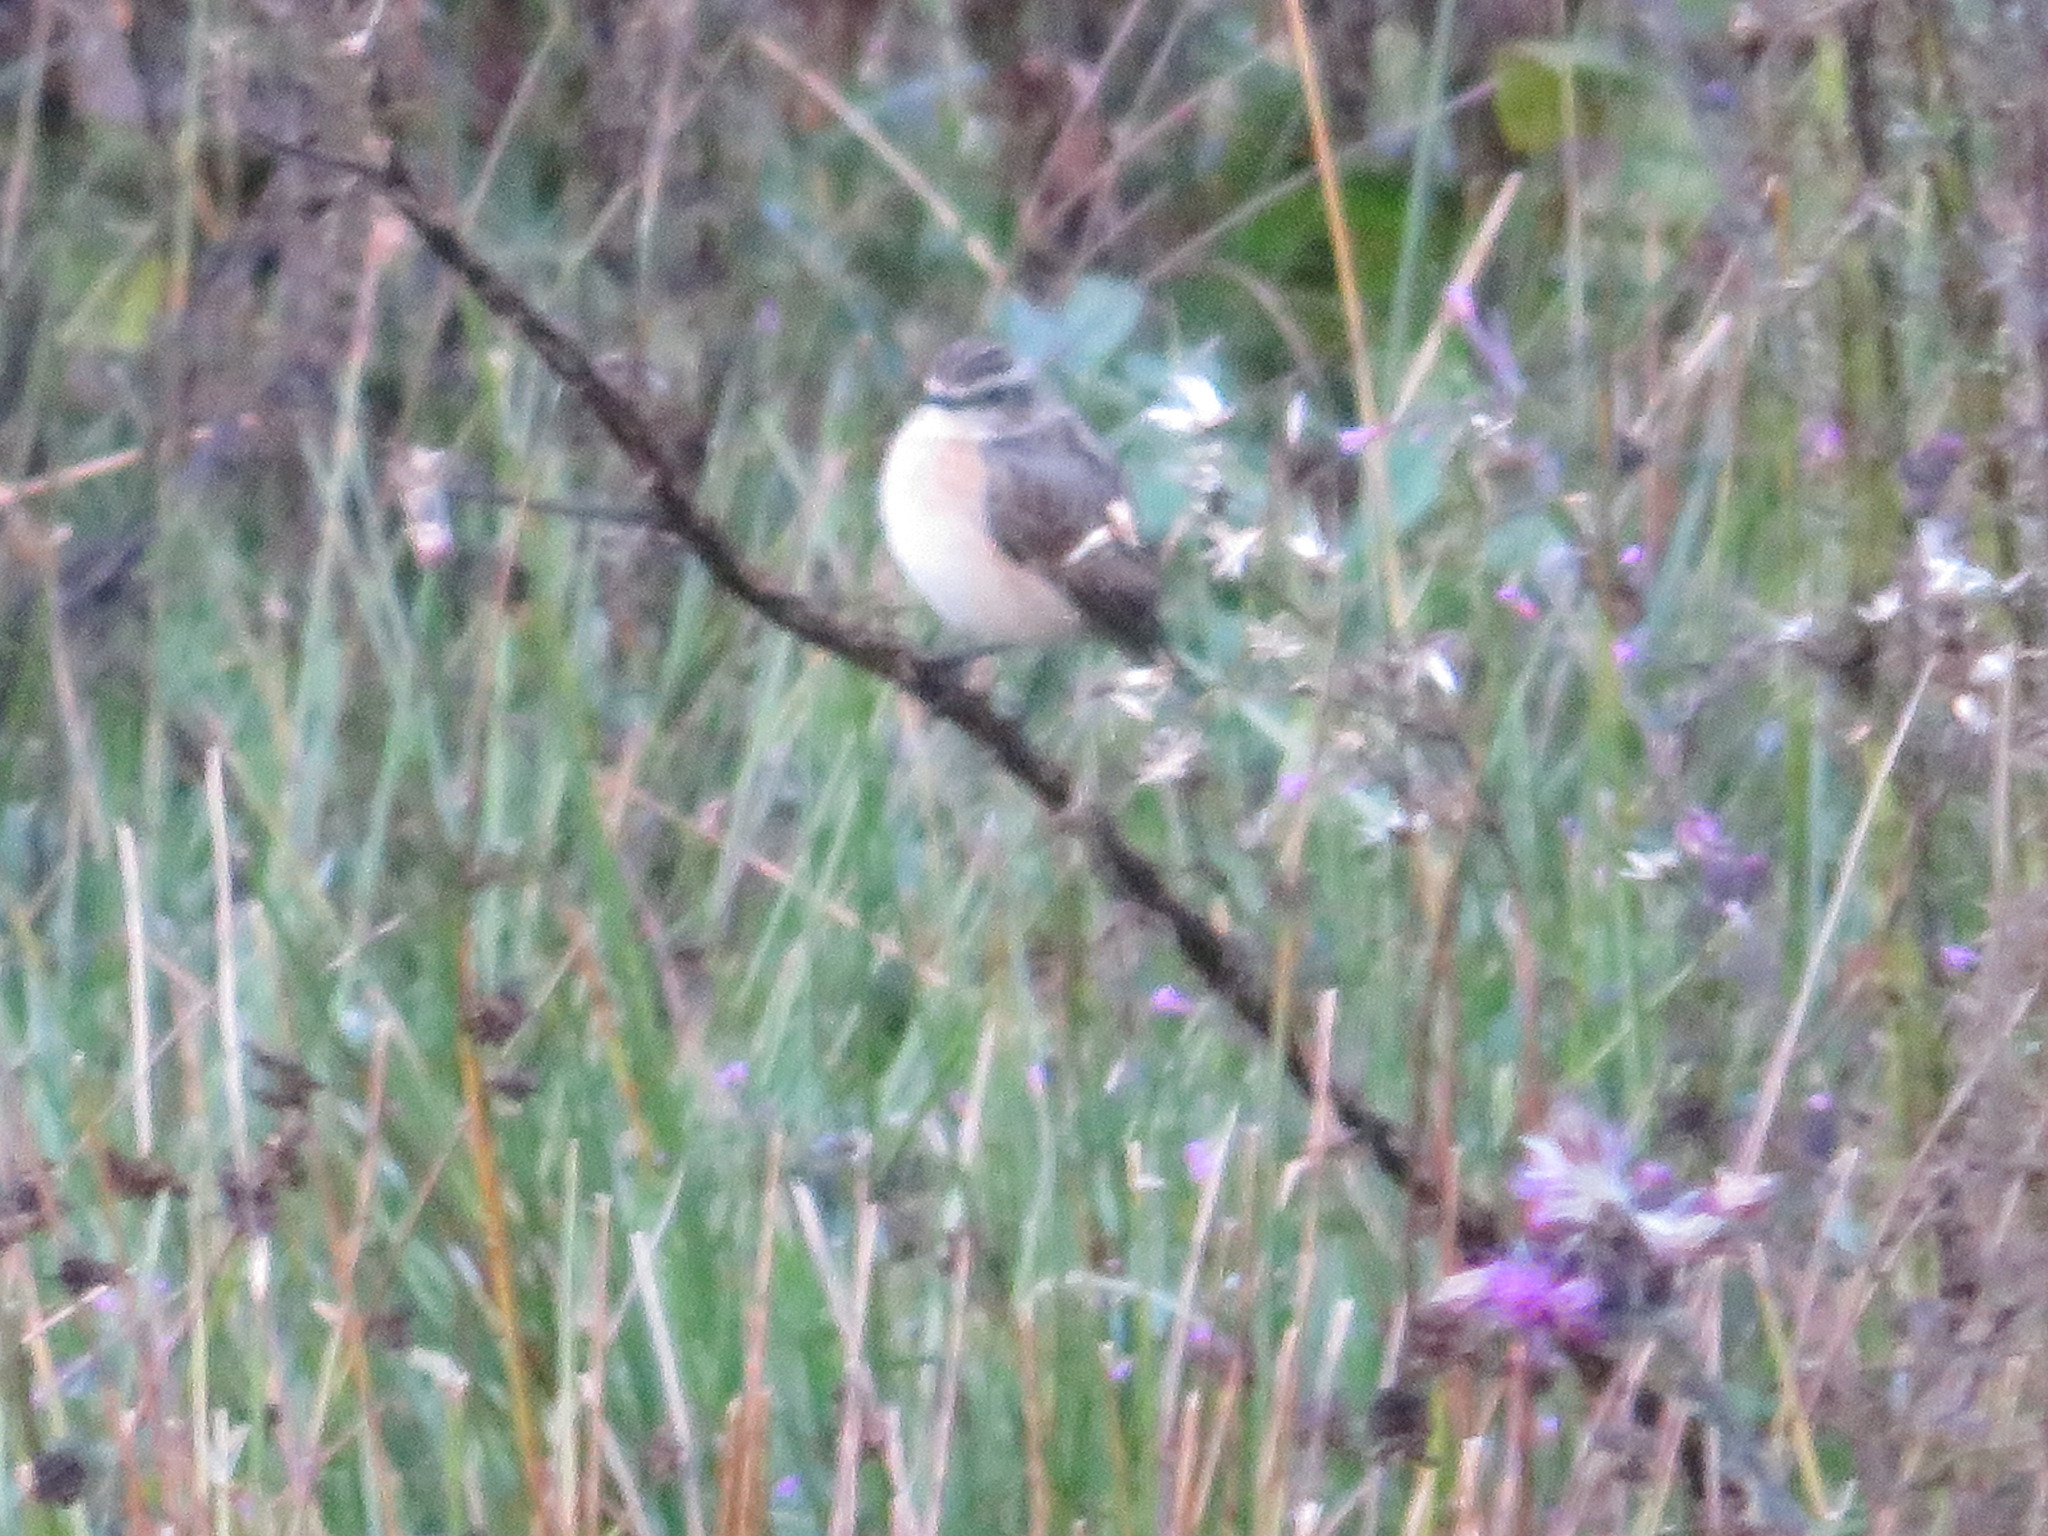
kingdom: Animalia
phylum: Chordata
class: Aves
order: Passeriformes
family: Muscicapidae
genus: Saxicola
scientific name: Saxicola rubetra
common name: Whinchat
